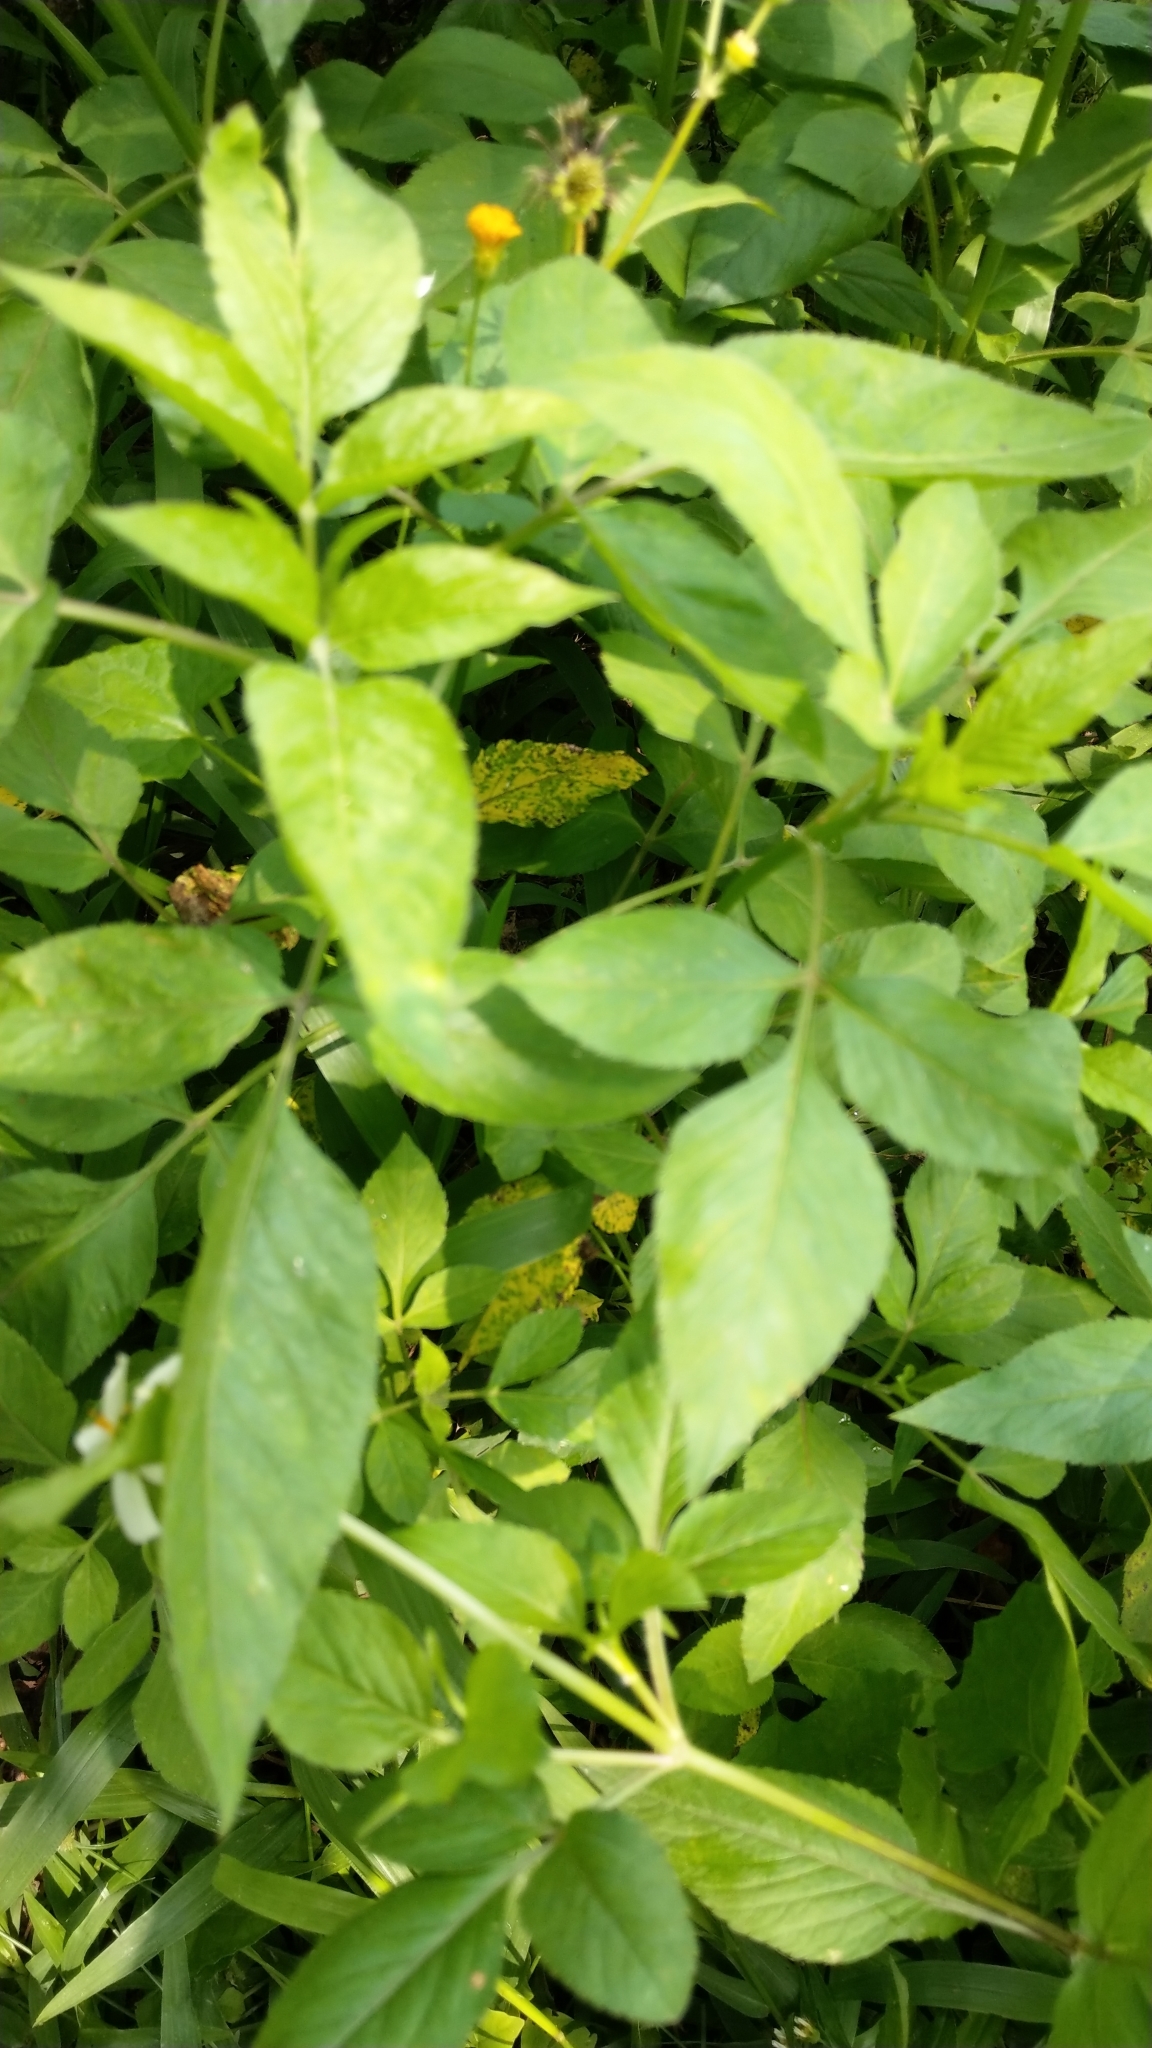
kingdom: Plantae
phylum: Tracheophyta
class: Magnoliopsida
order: Asterales
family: Asteraceae
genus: Bidens
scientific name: Bidens alba
